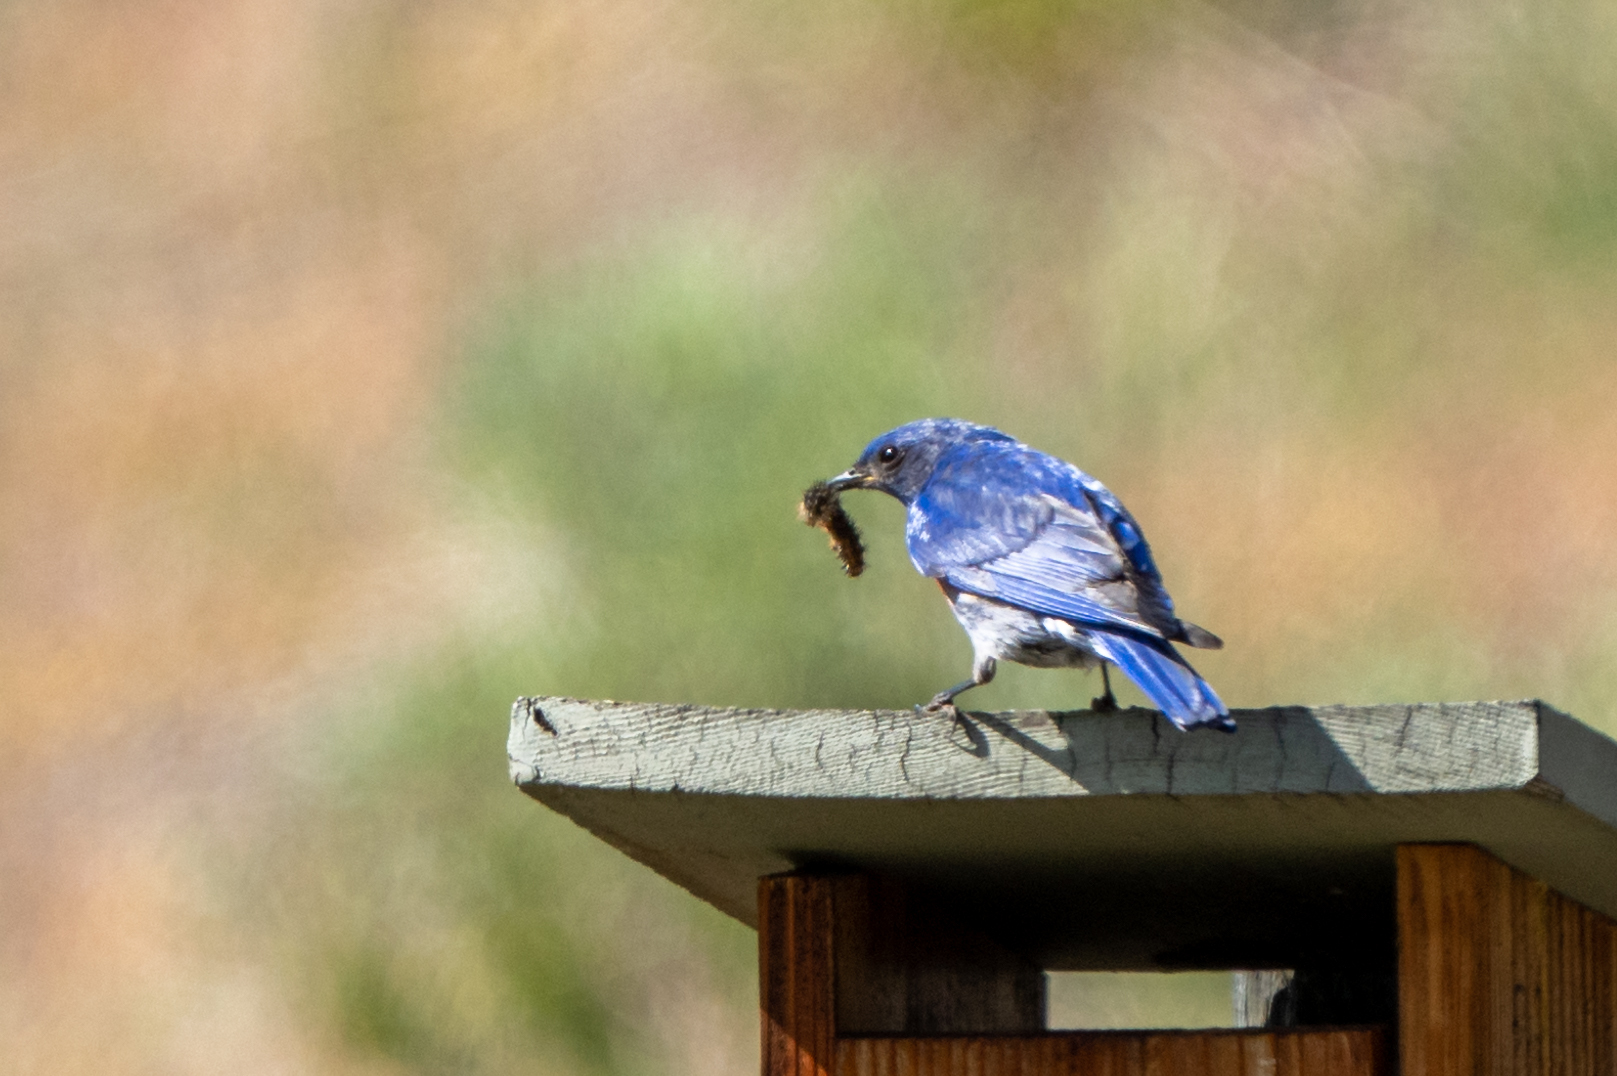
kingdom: Animalia
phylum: Chordata
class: Aves
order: Passeriformes
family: Turdidae
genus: Sialia
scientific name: Sialia mexicana
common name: Western bluebird
